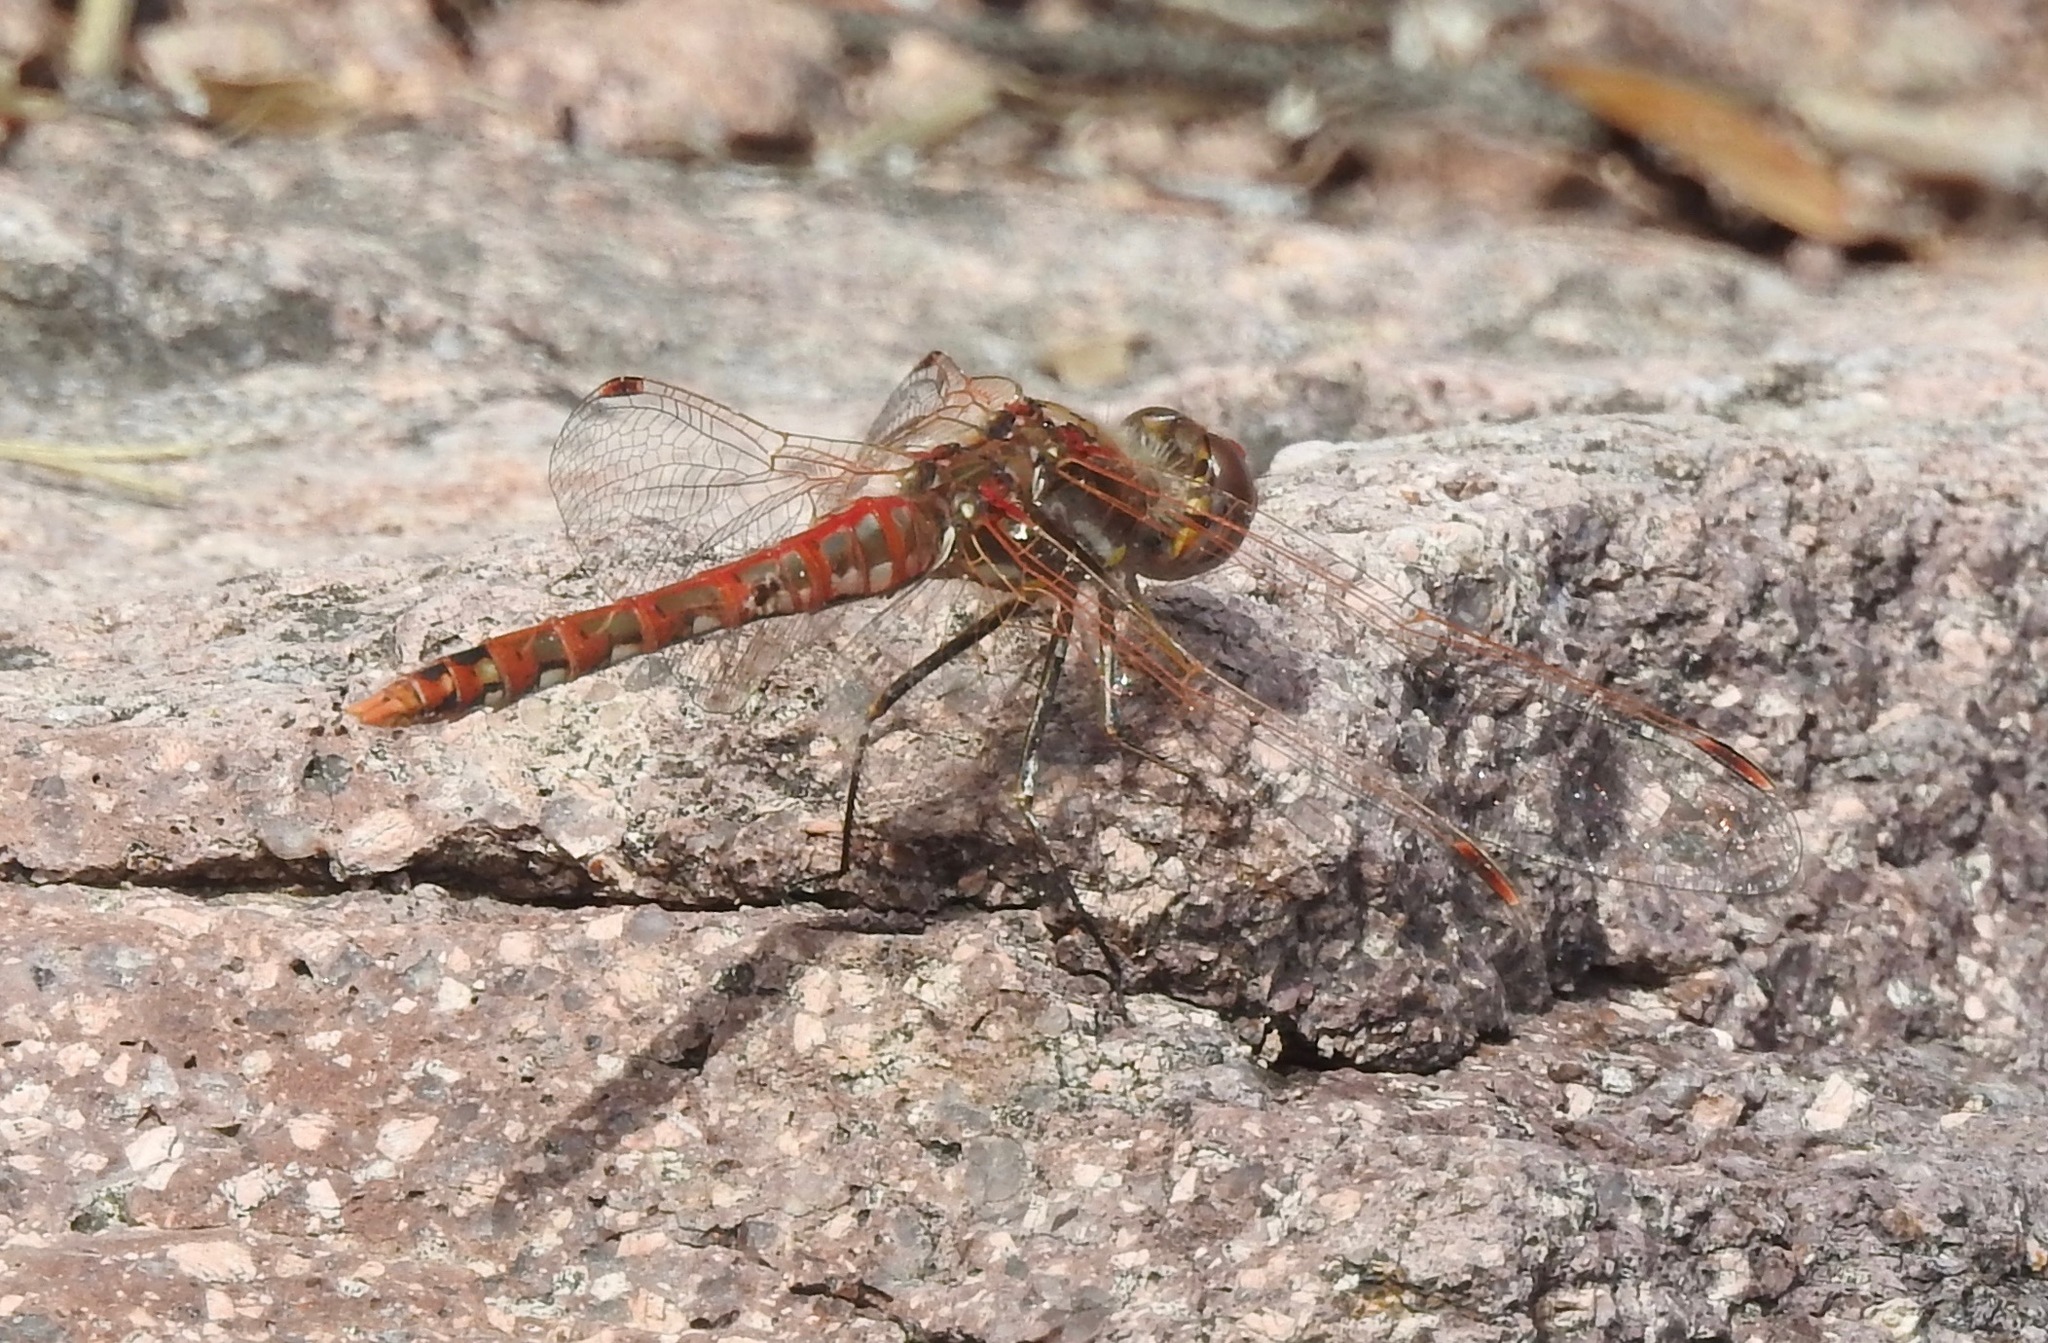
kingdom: Animalia
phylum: Arthropoda
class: Insecta
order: Odonata
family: Libellulidae
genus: Sympetrum
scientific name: Sympetrum corruptum
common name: Variegated meadowhawk
